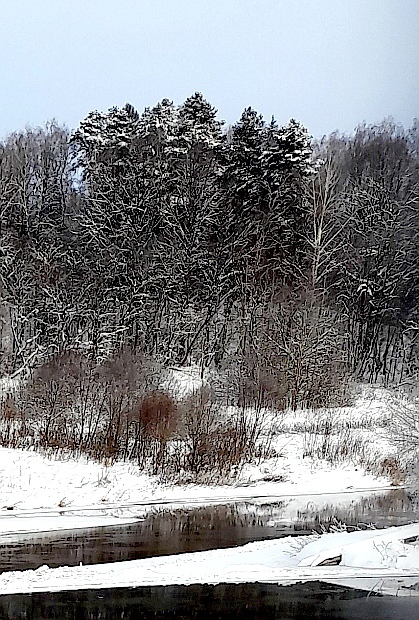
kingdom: Plantae
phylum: Tracheophyta
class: Pinopsida
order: Pinales
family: Pinaceae
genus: Pinus
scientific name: Pinus sylvestris
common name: Scots pine
